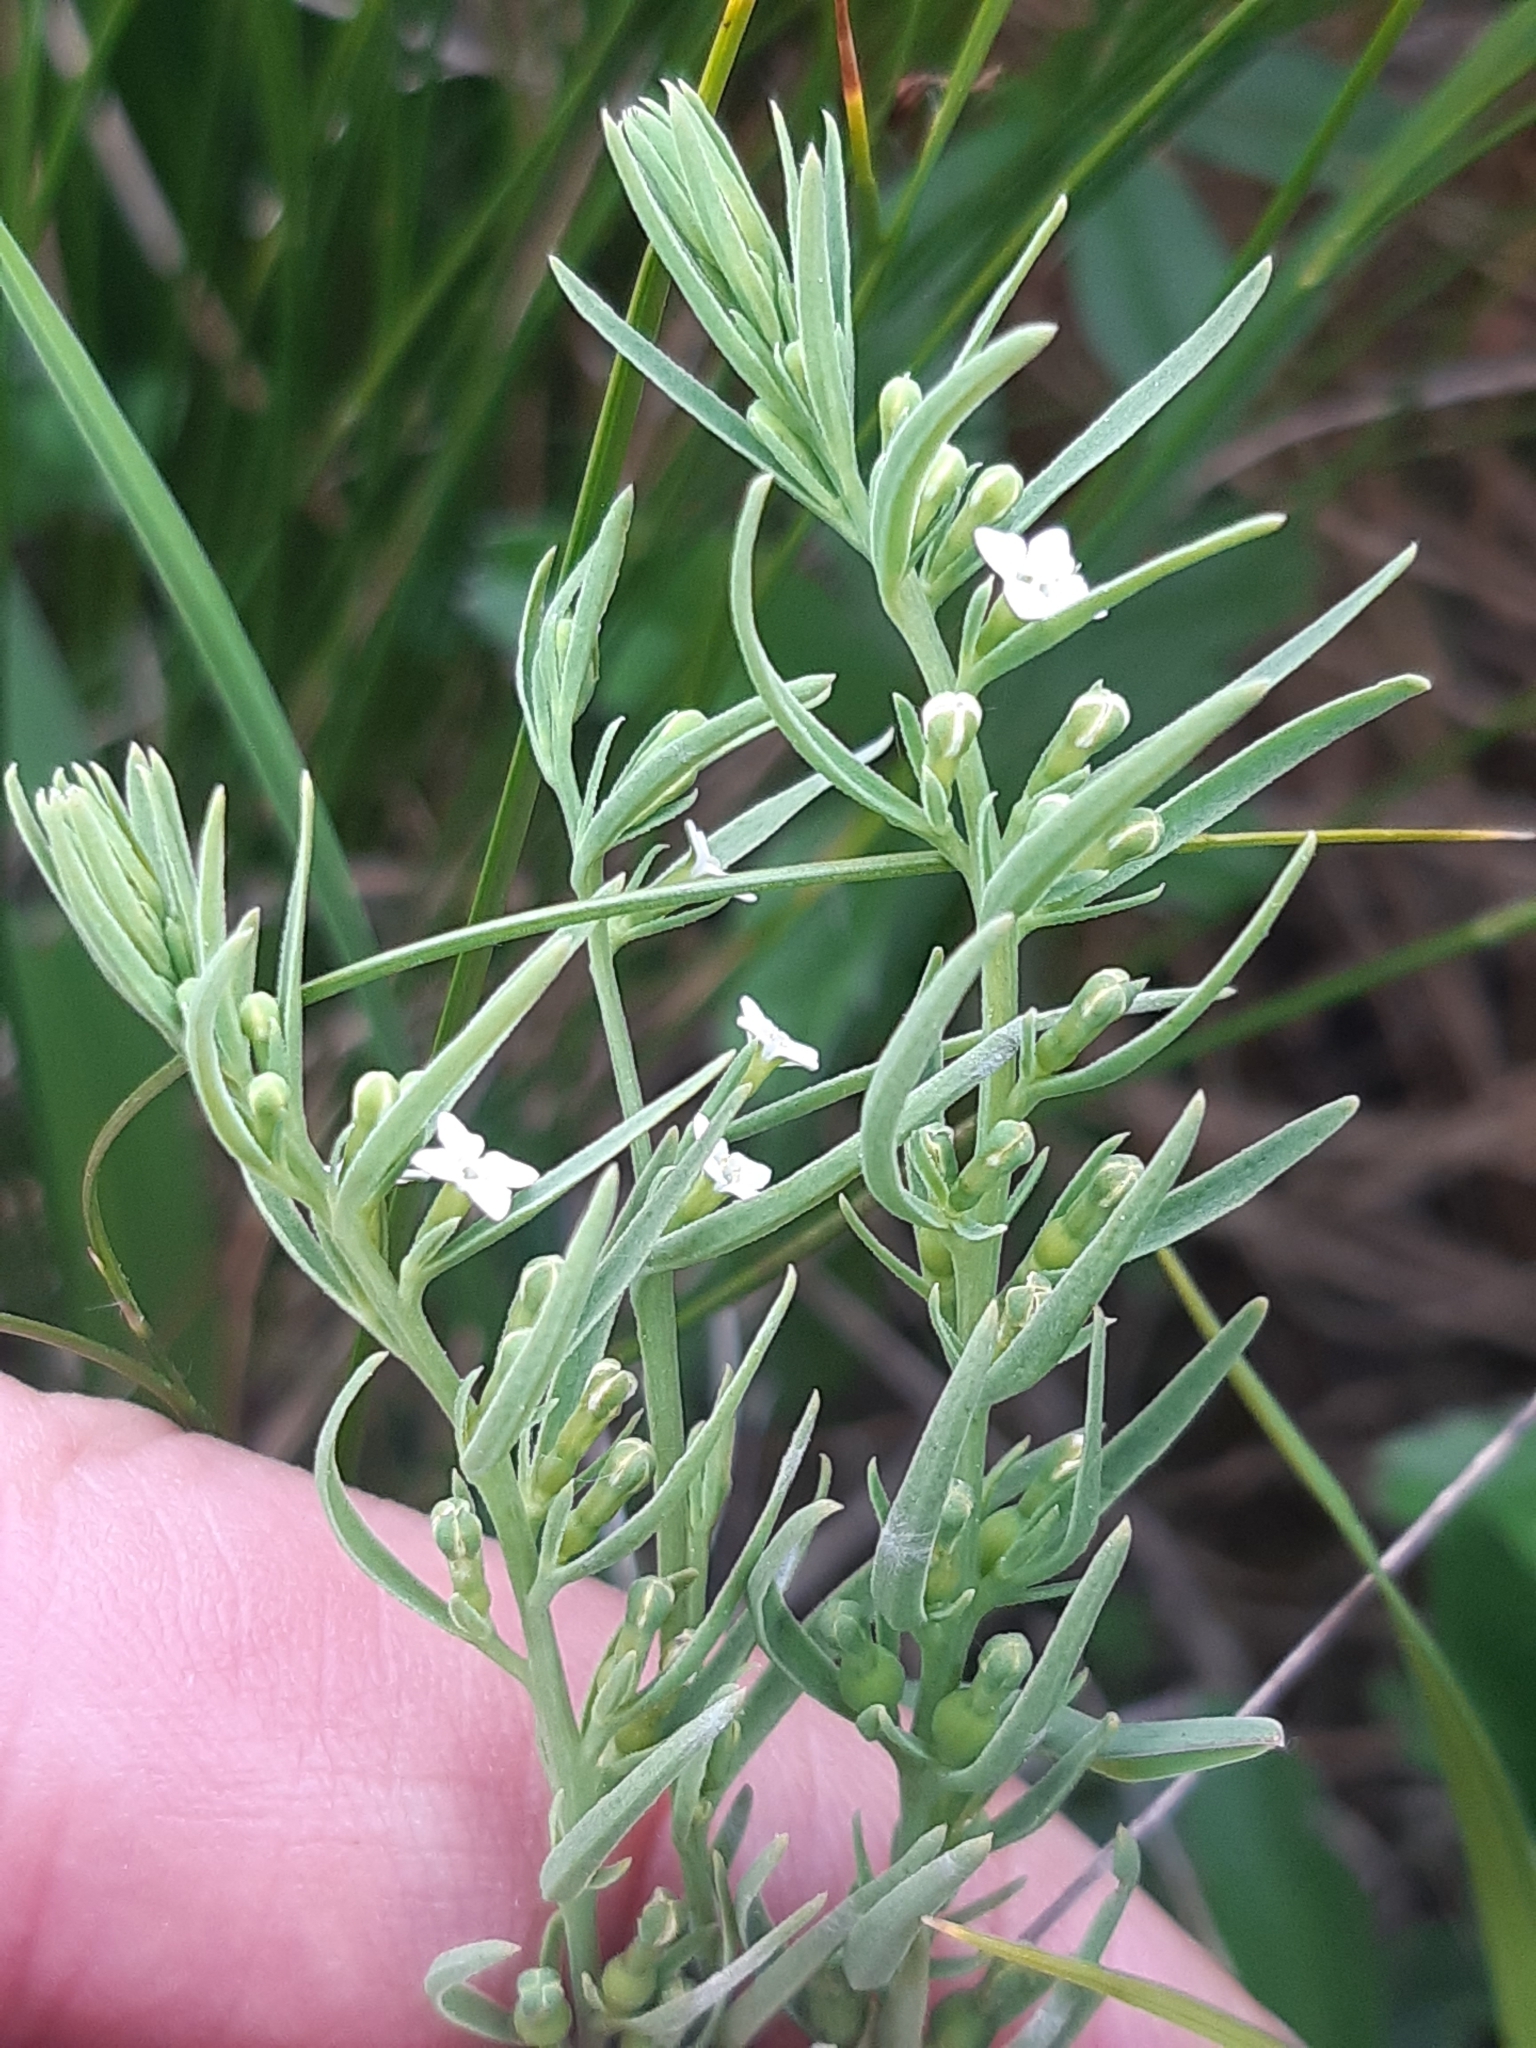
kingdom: Plantae
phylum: Tracheophyta
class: Magnoliopsida
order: Santalales
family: Thesiaceae
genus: Thesium
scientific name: Thesium alpinum
